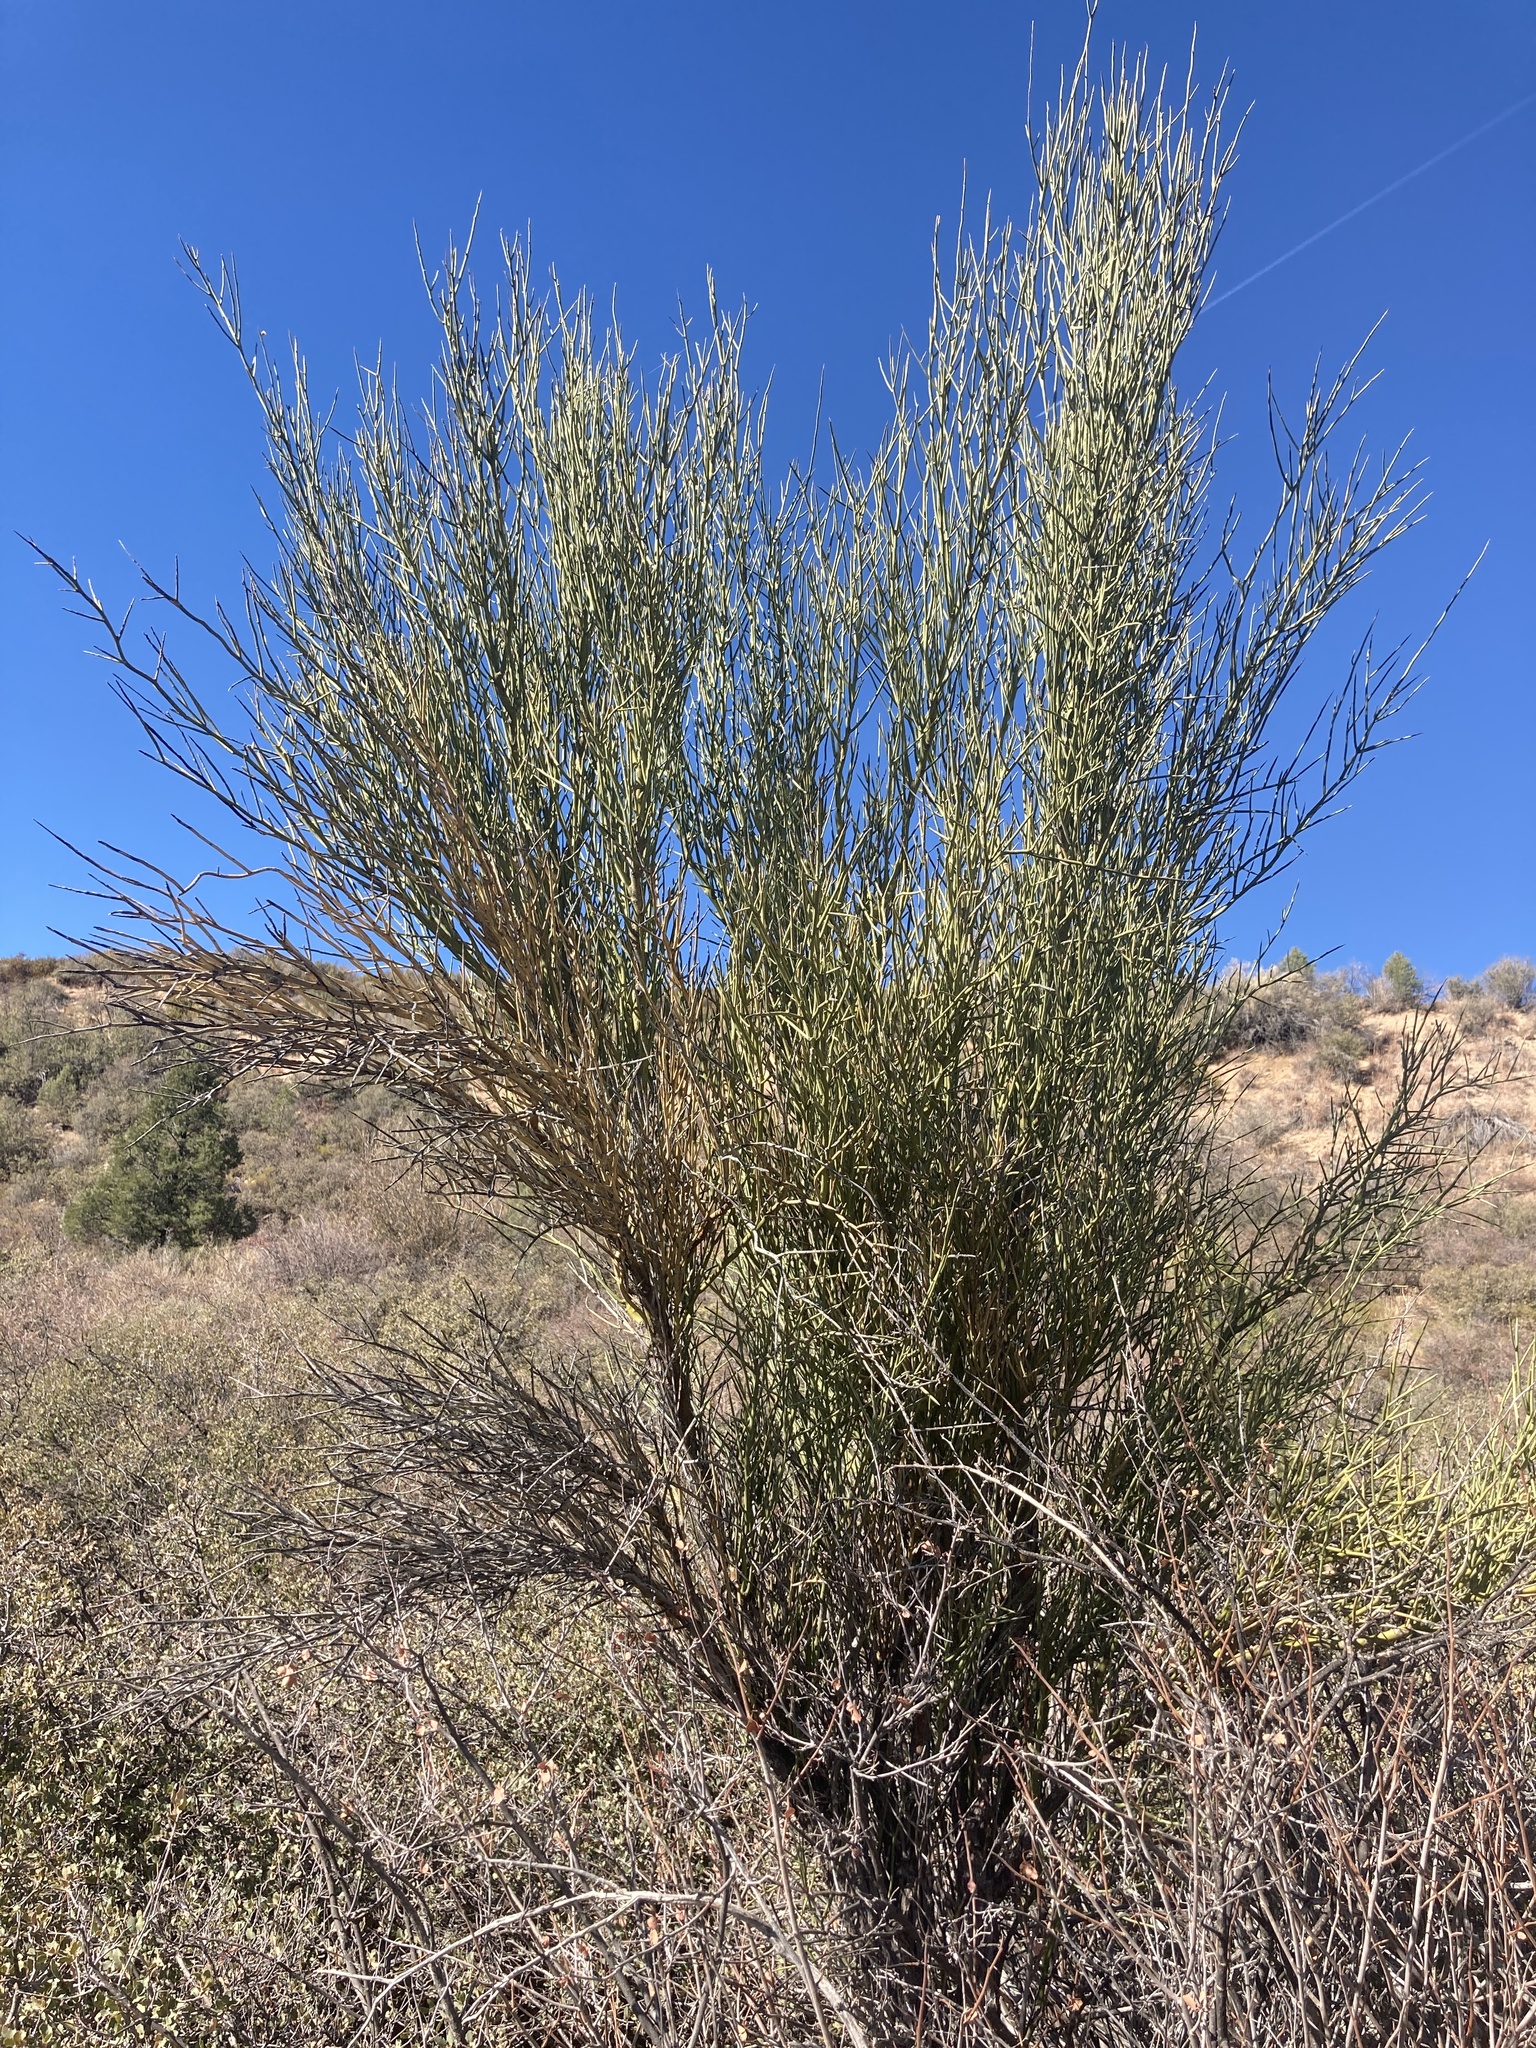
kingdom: Plantae
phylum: Tracheophyta
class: Magnoliopsida
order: Celastrales
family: Celastraceae
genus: Canotia
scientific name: Canotia holacantha
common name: Crucifixion thorns
